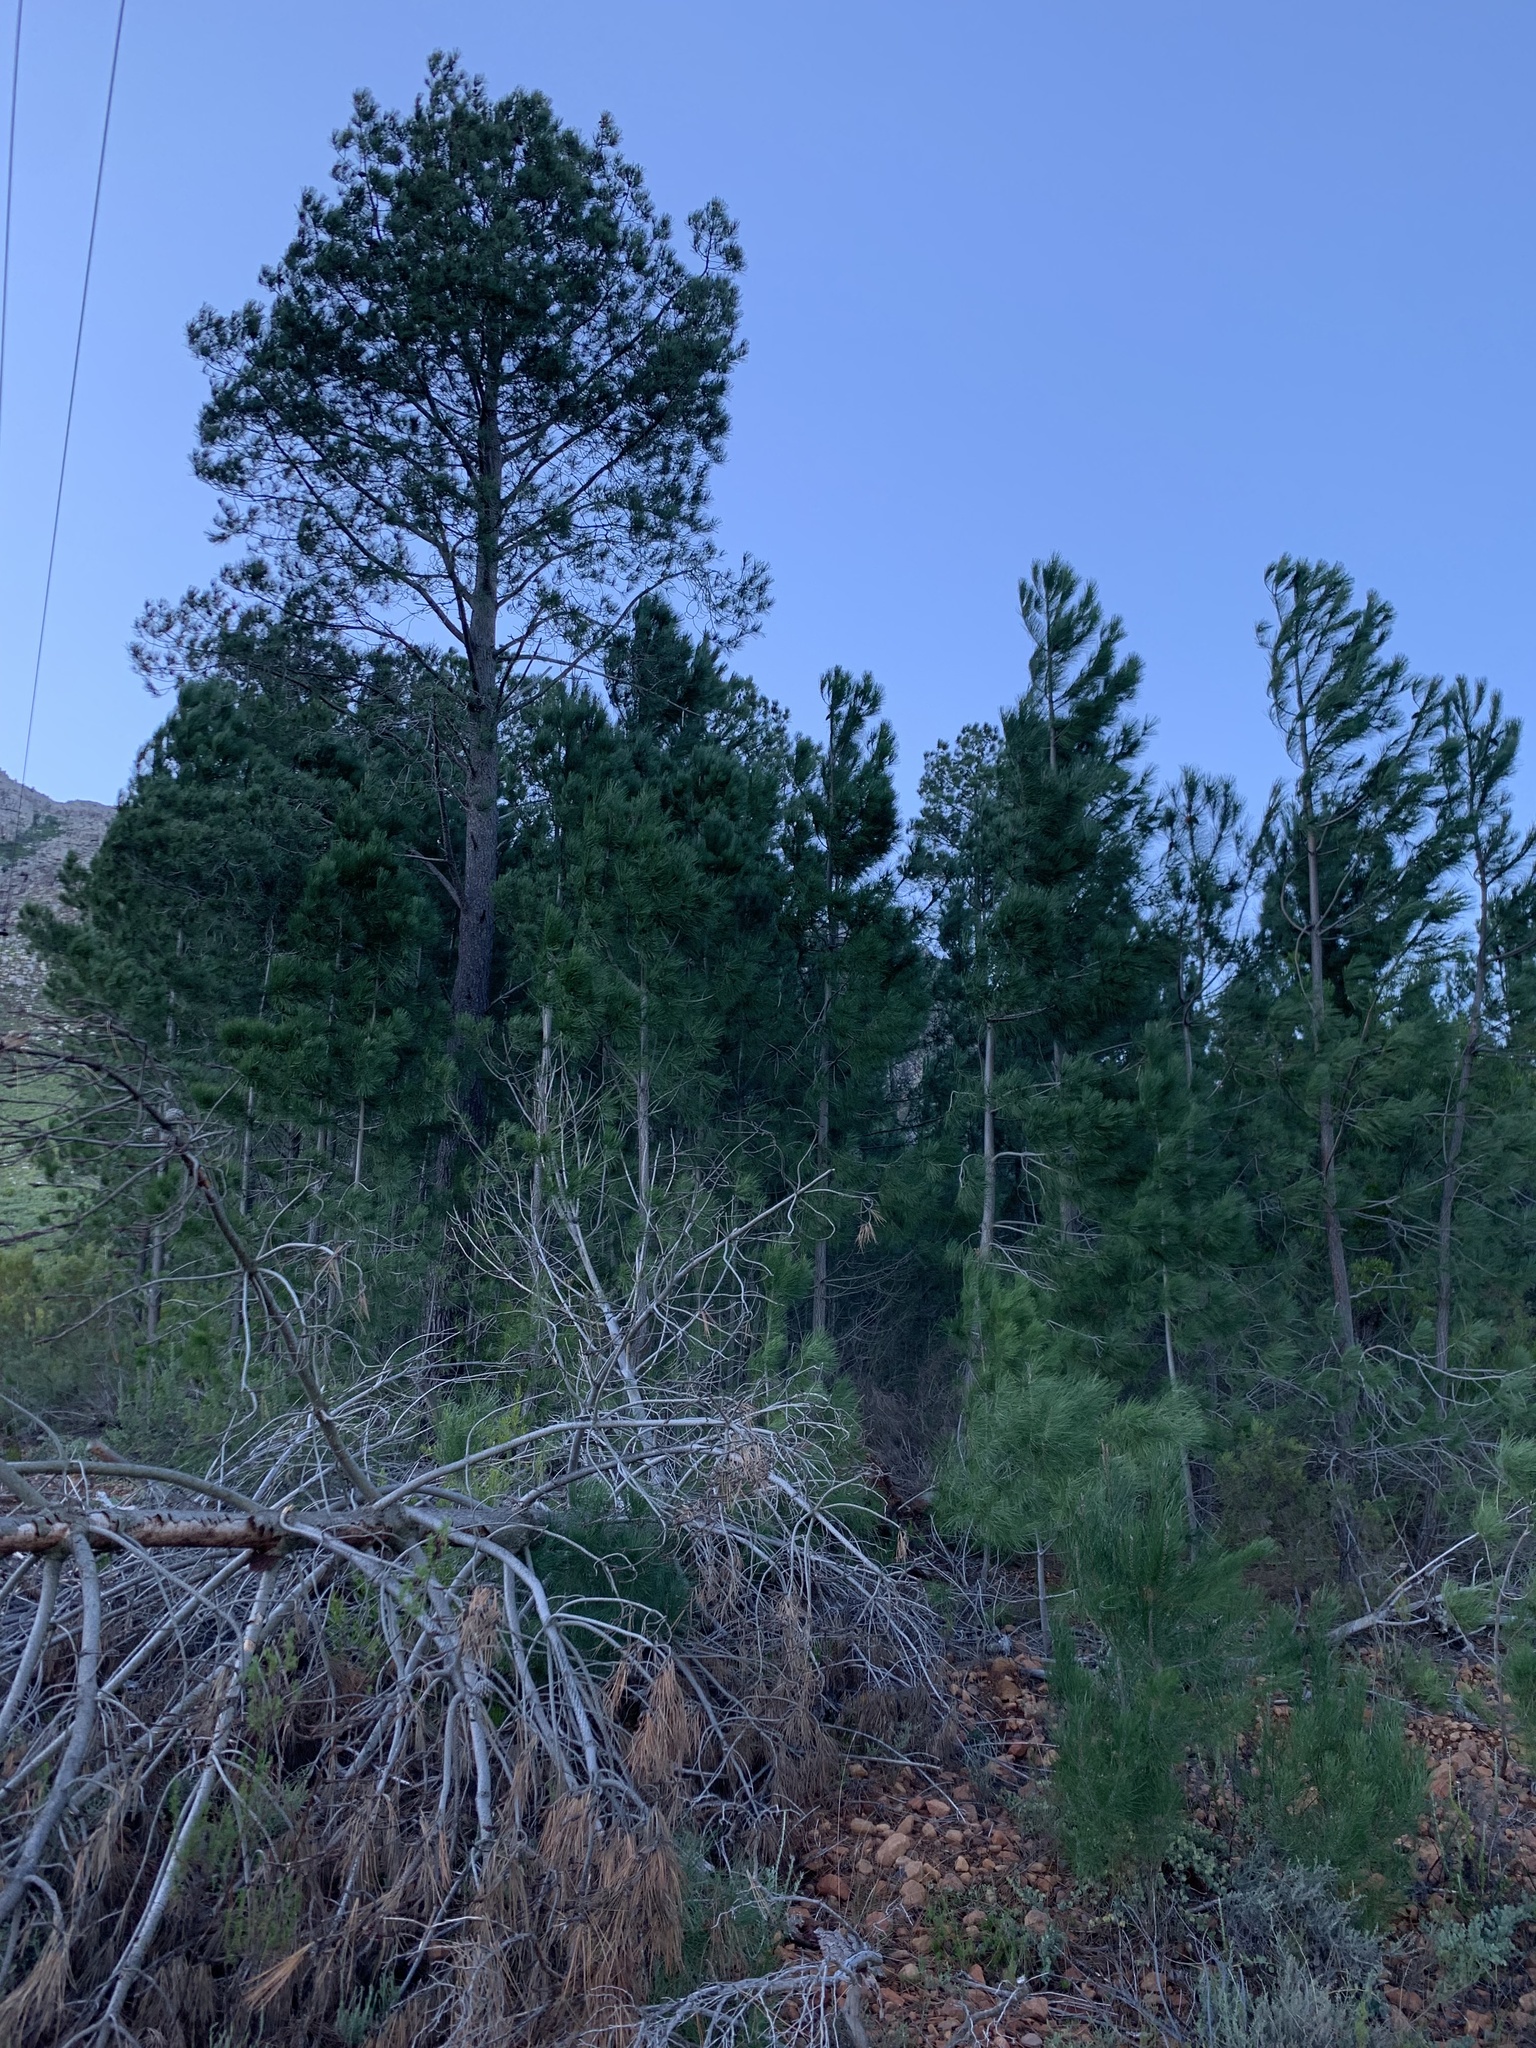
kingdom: Plantae
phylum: Tracheophyta
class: Pinopsida
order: Pinales
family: Pinaceae
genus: Pinus
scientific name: Pinus pinaster
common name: Maritime pine
